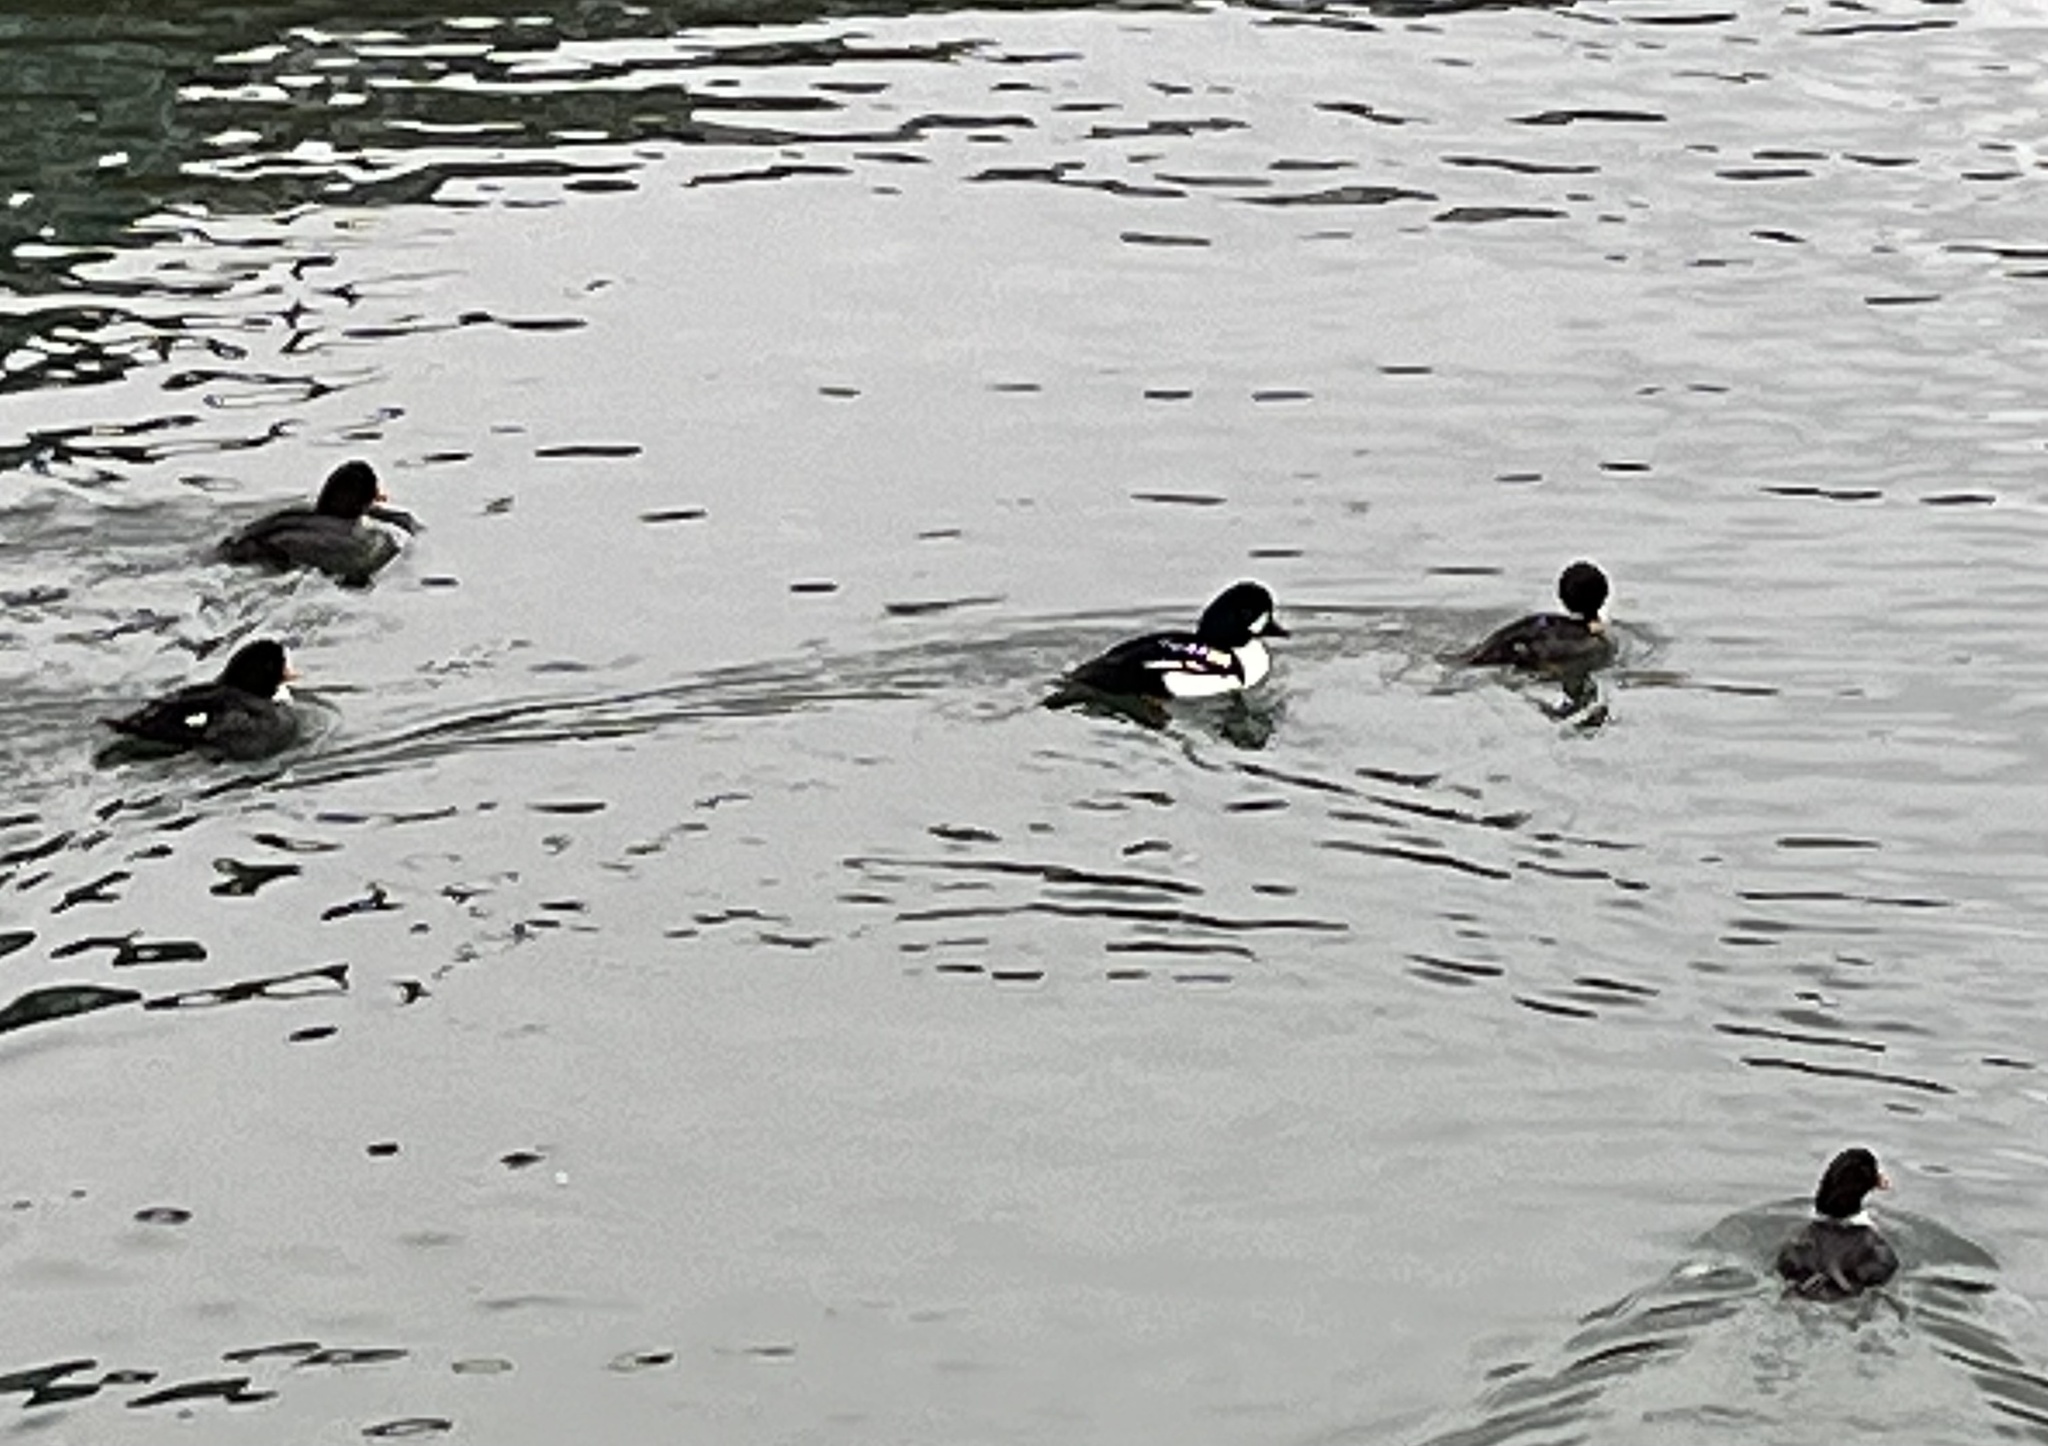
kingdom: Animalia
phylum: Chordata
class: Aves
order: Anseriformes
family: Anatidae
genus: Bucephala
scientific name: Bucephala islandica
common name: Barrow's goldeneye
